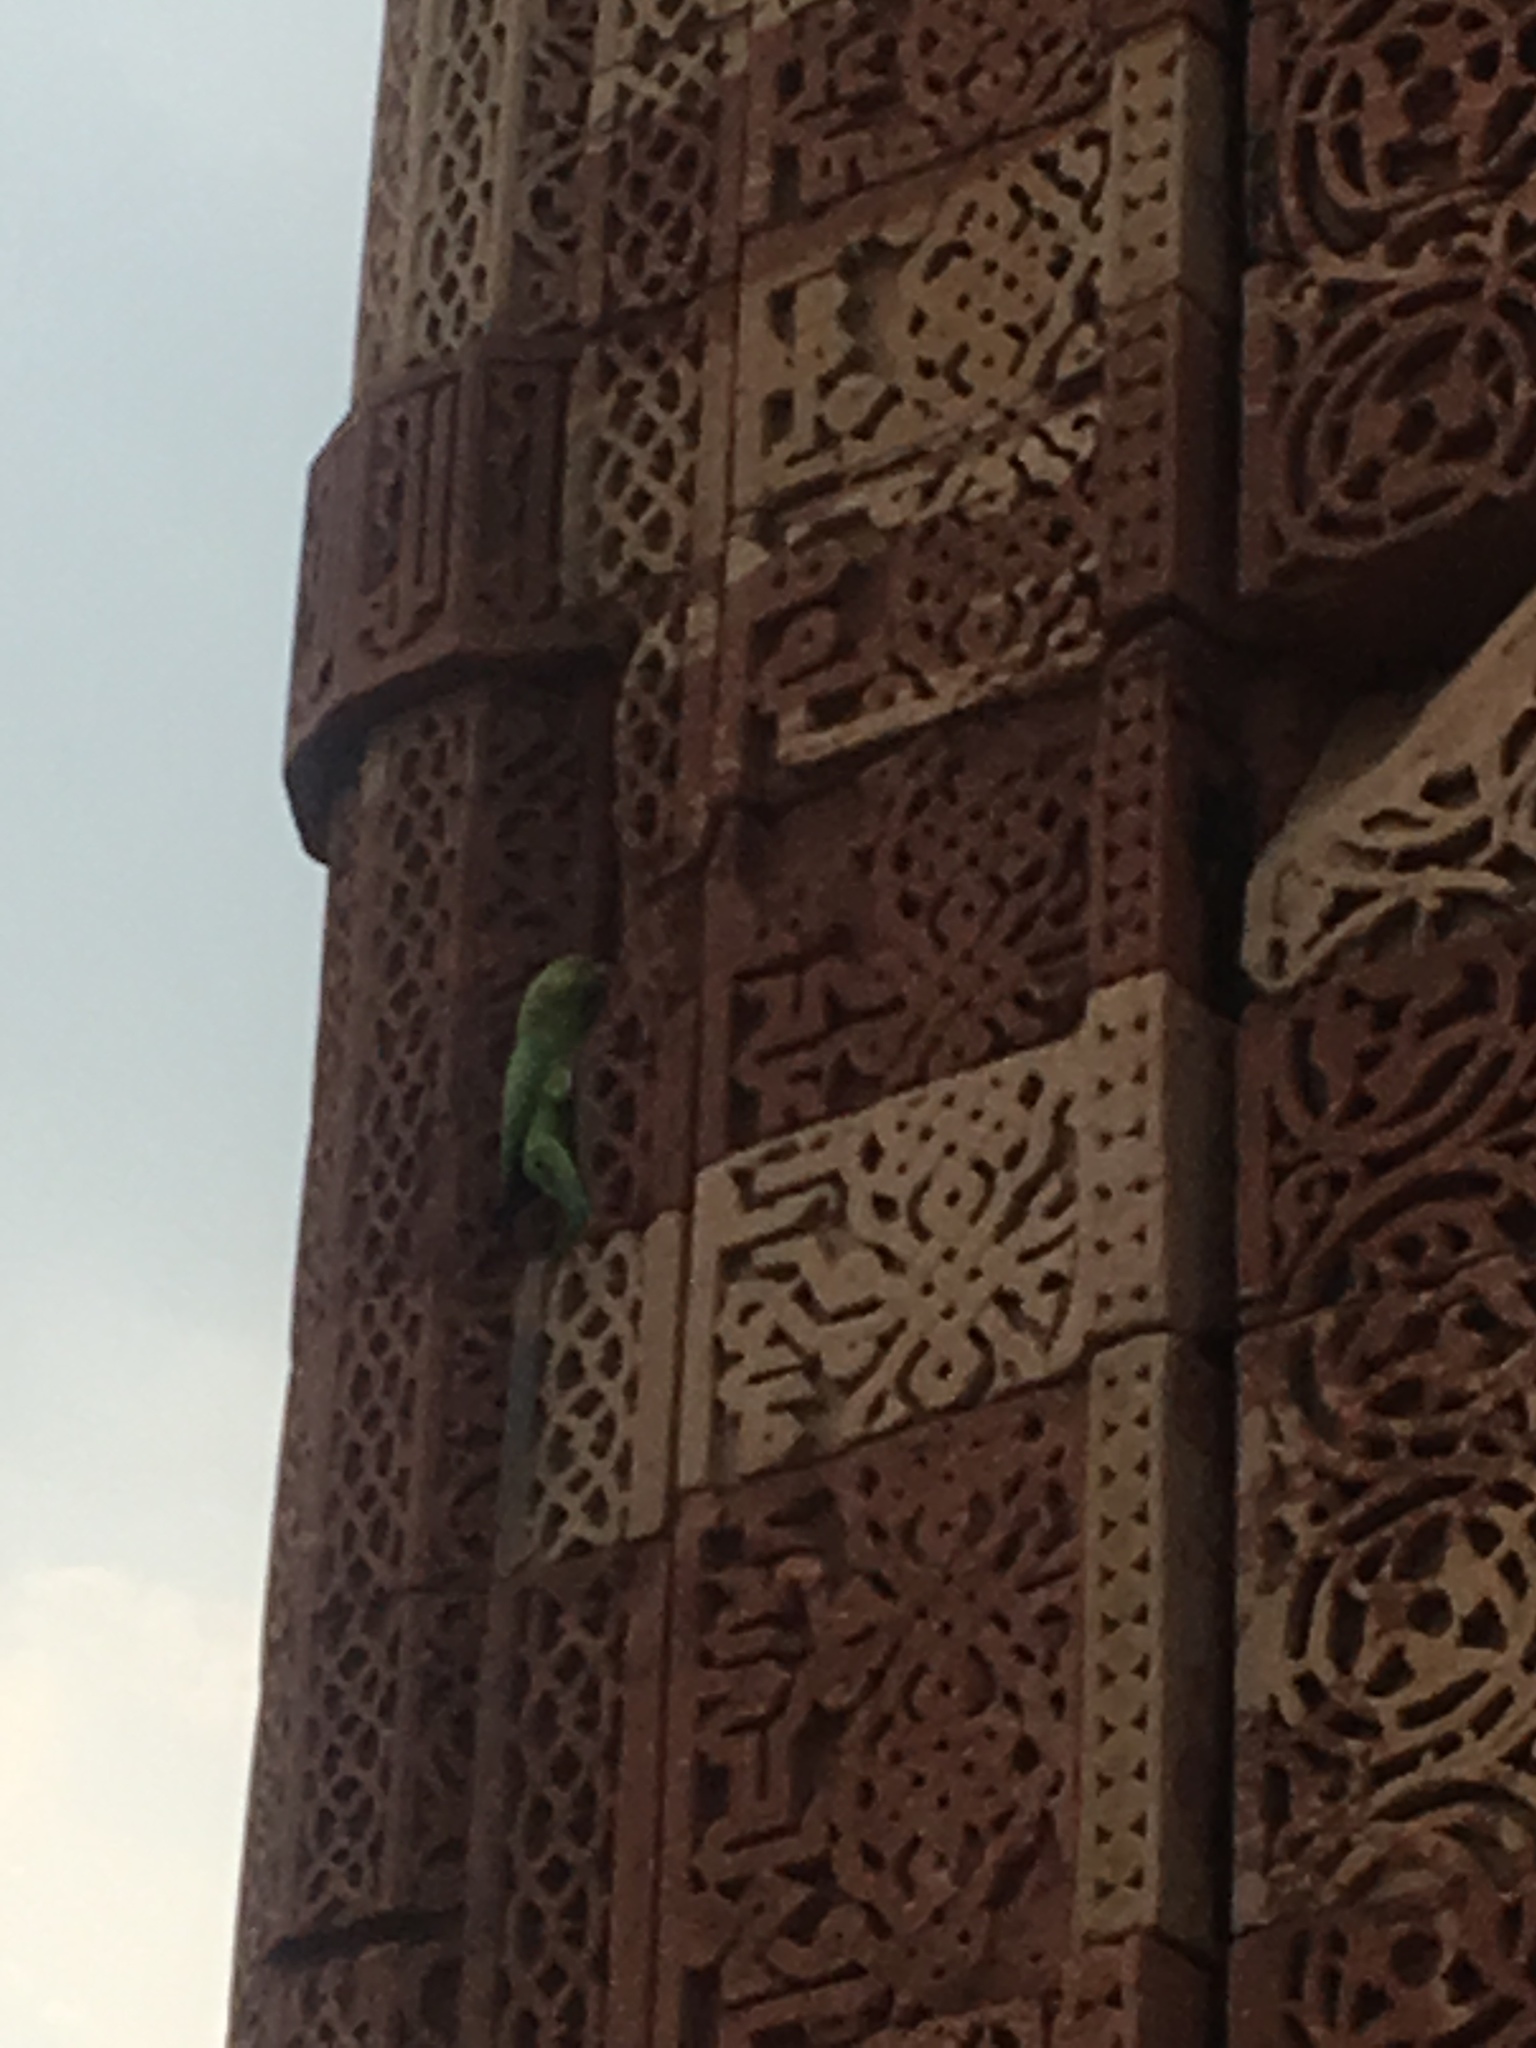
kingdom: Animalia
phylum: Chordata
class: Aves
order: Psittaciformes
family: Psittacidae
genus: Psittacula
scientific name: Psittacula krameri
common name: Rose-ringed parakeet
